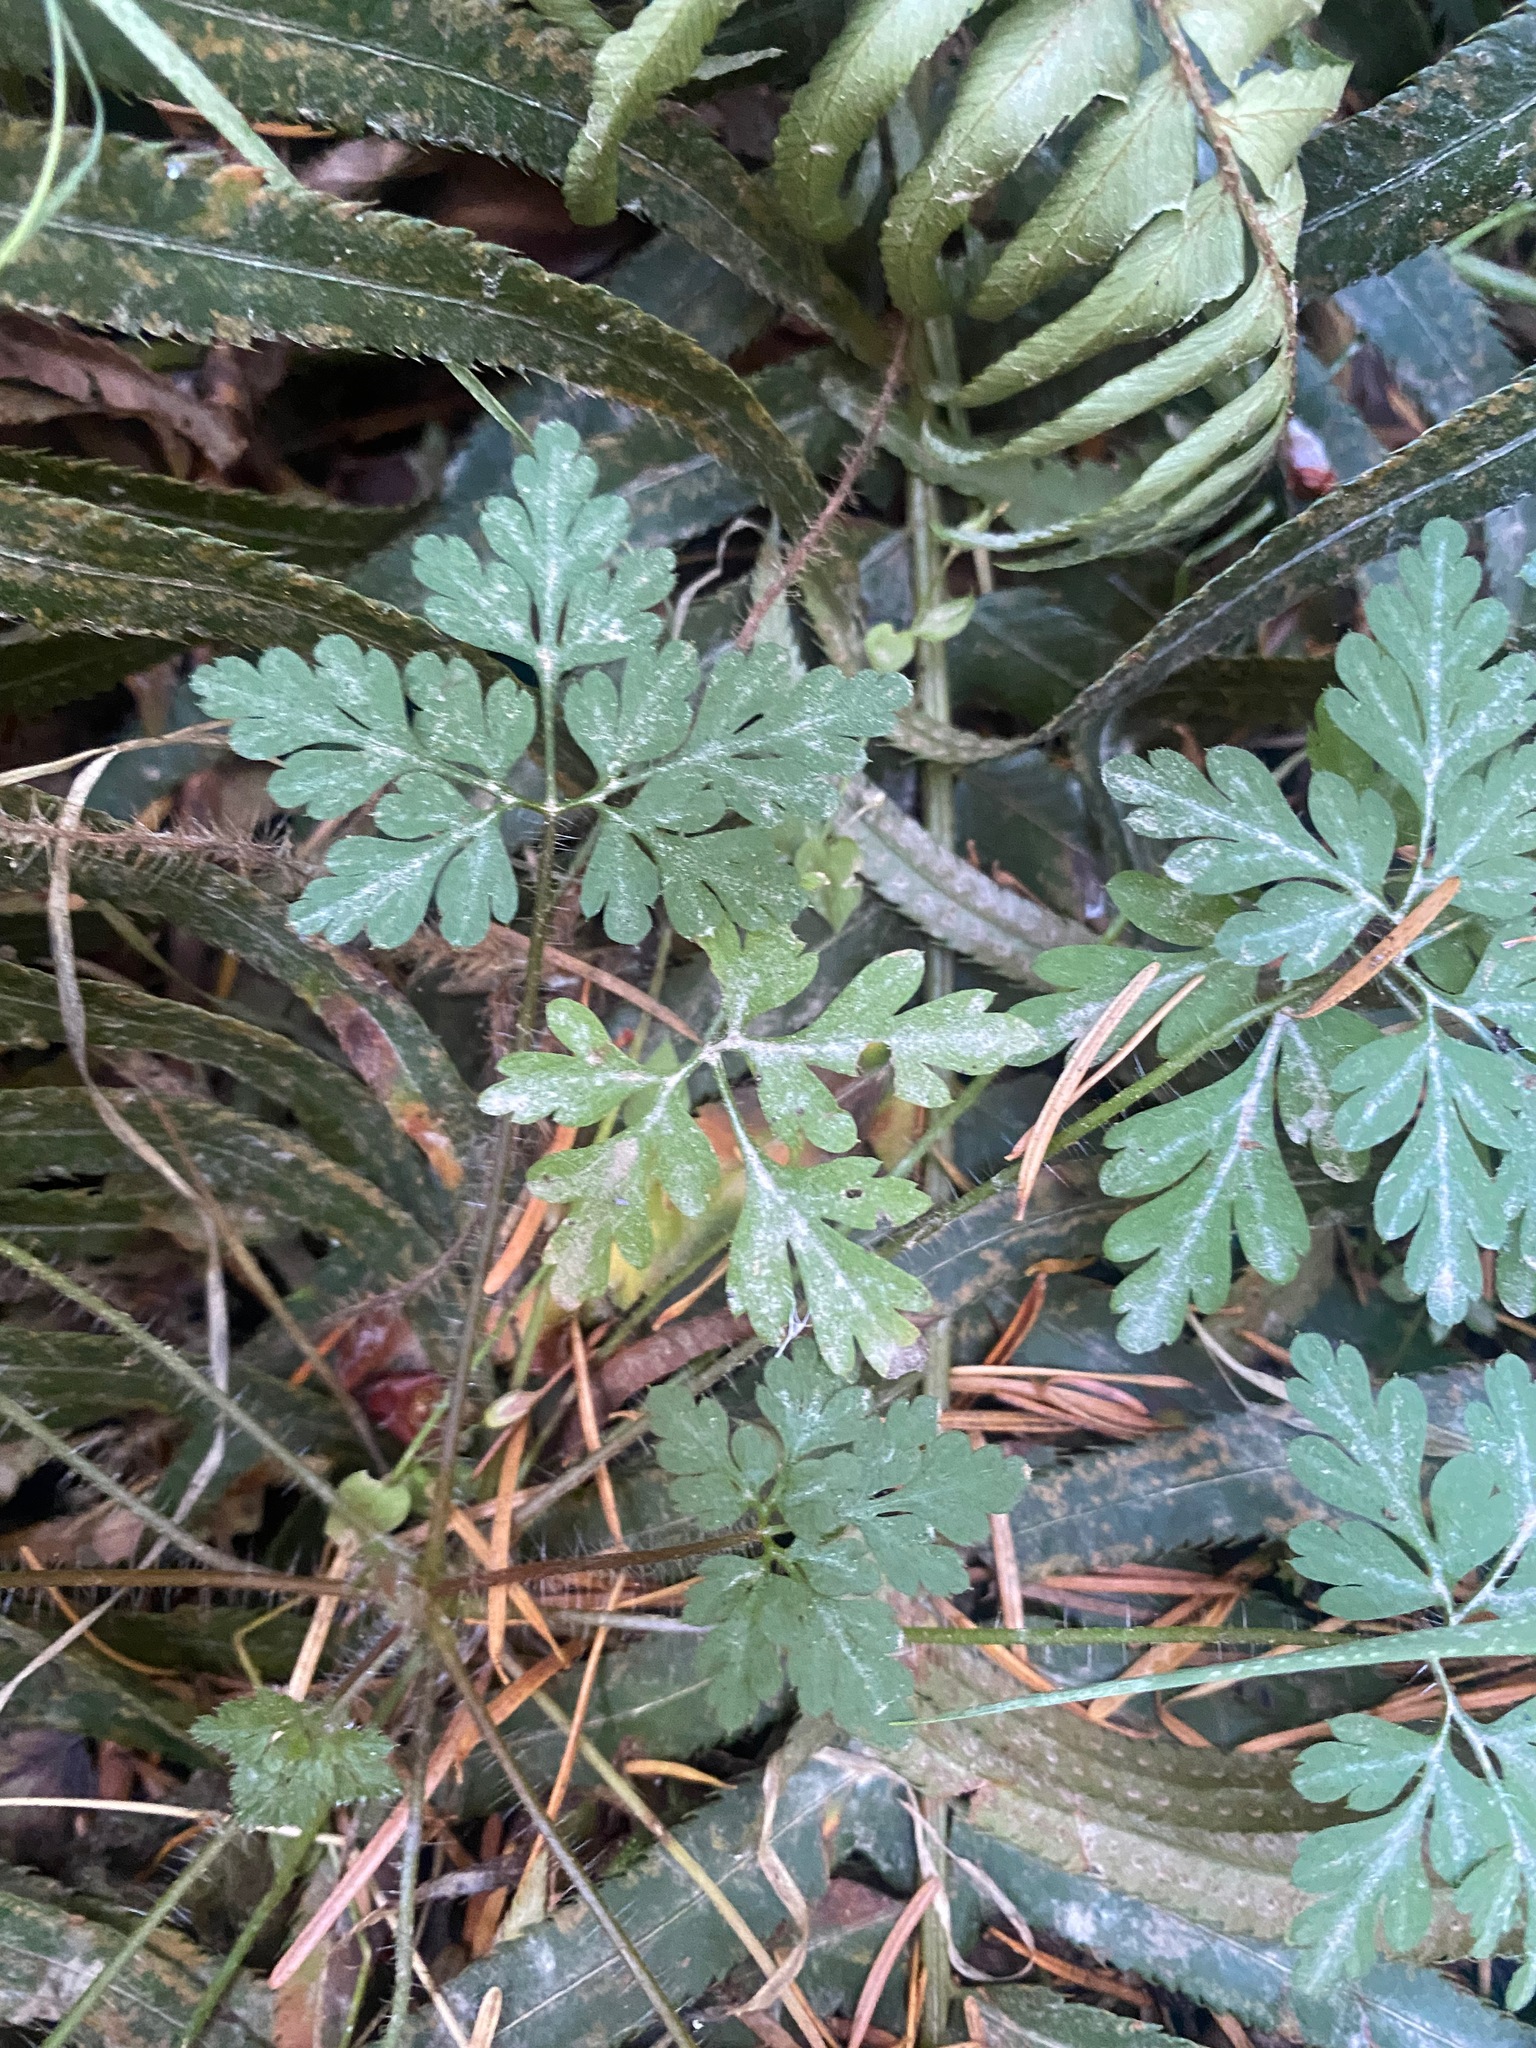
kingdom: Plantae
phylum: Tracheophyta
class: Magnoliopsida
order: Geraniales
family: Geraniaceae
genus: Geranium
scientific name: Geranium robertianum
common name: Herb-robert
